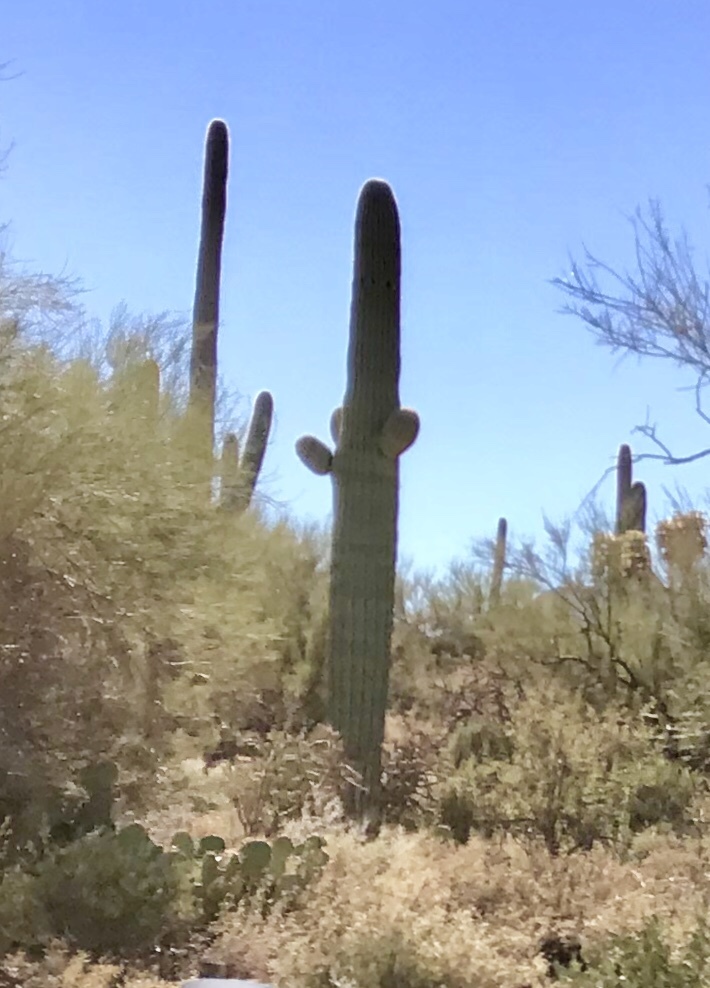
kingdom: Plantae
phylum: Tracheophyta
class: Magnoliopsida
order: Caryophyllales
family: Cactaceae
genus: Carnegiea
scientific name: Carnegiea gigantea
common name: Saguaro
